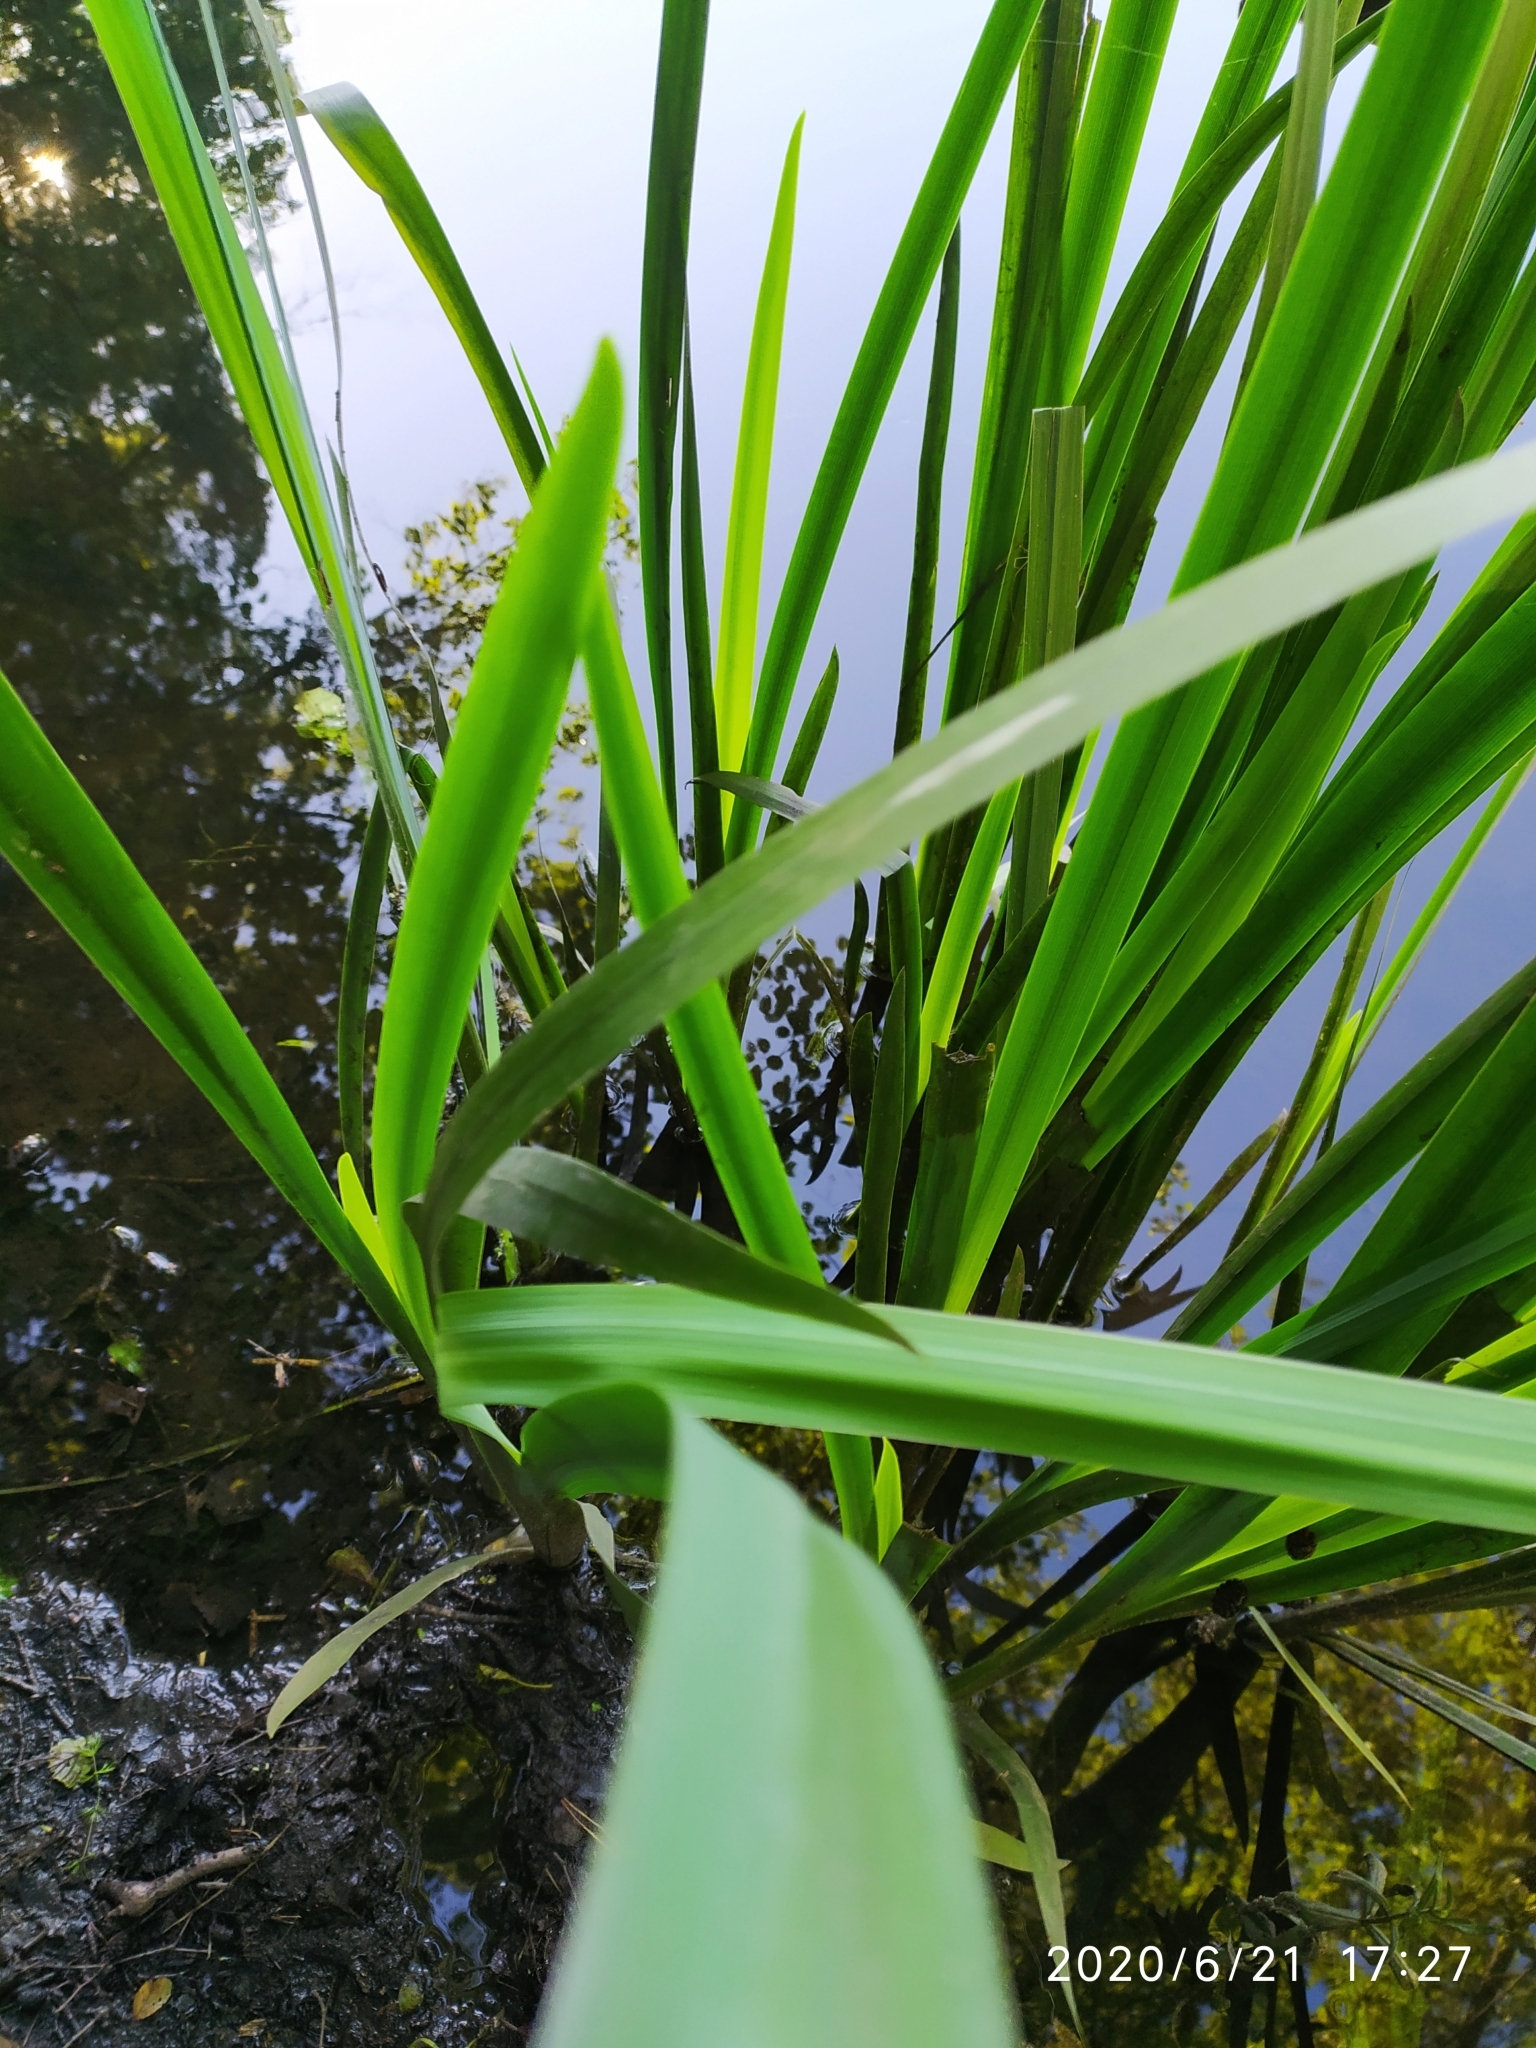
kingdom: Plantae
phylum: Tracheophyta
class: Liliopsida
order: Asparagales
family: Iridaceae
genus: Iris
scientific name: Iris pseudacorus
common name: Yellow flag
